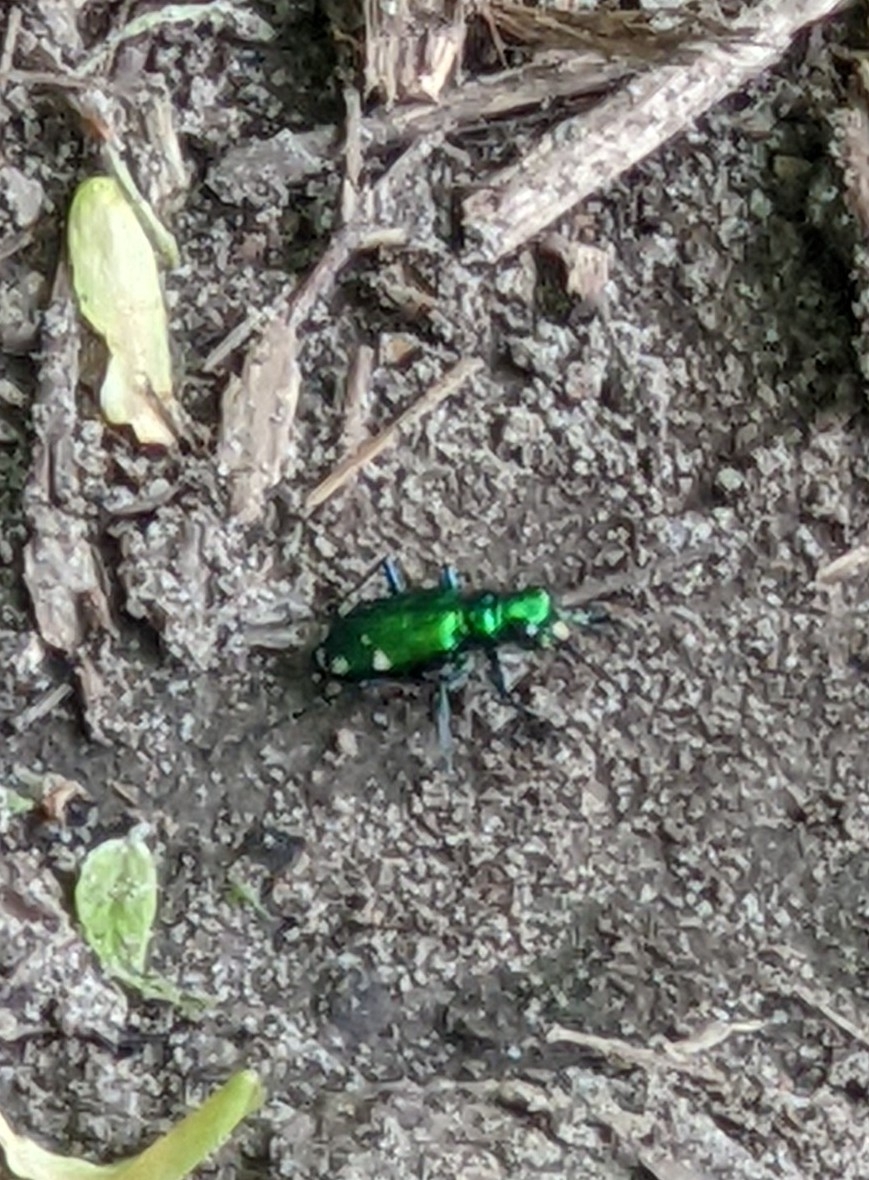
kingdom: Animalia
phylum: Arthropoda
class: Insecta
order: Coleoptera
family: Carabidae
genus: Cicindela
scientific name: Cicindela sexguttata
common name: Six-spotted tiger beetle
